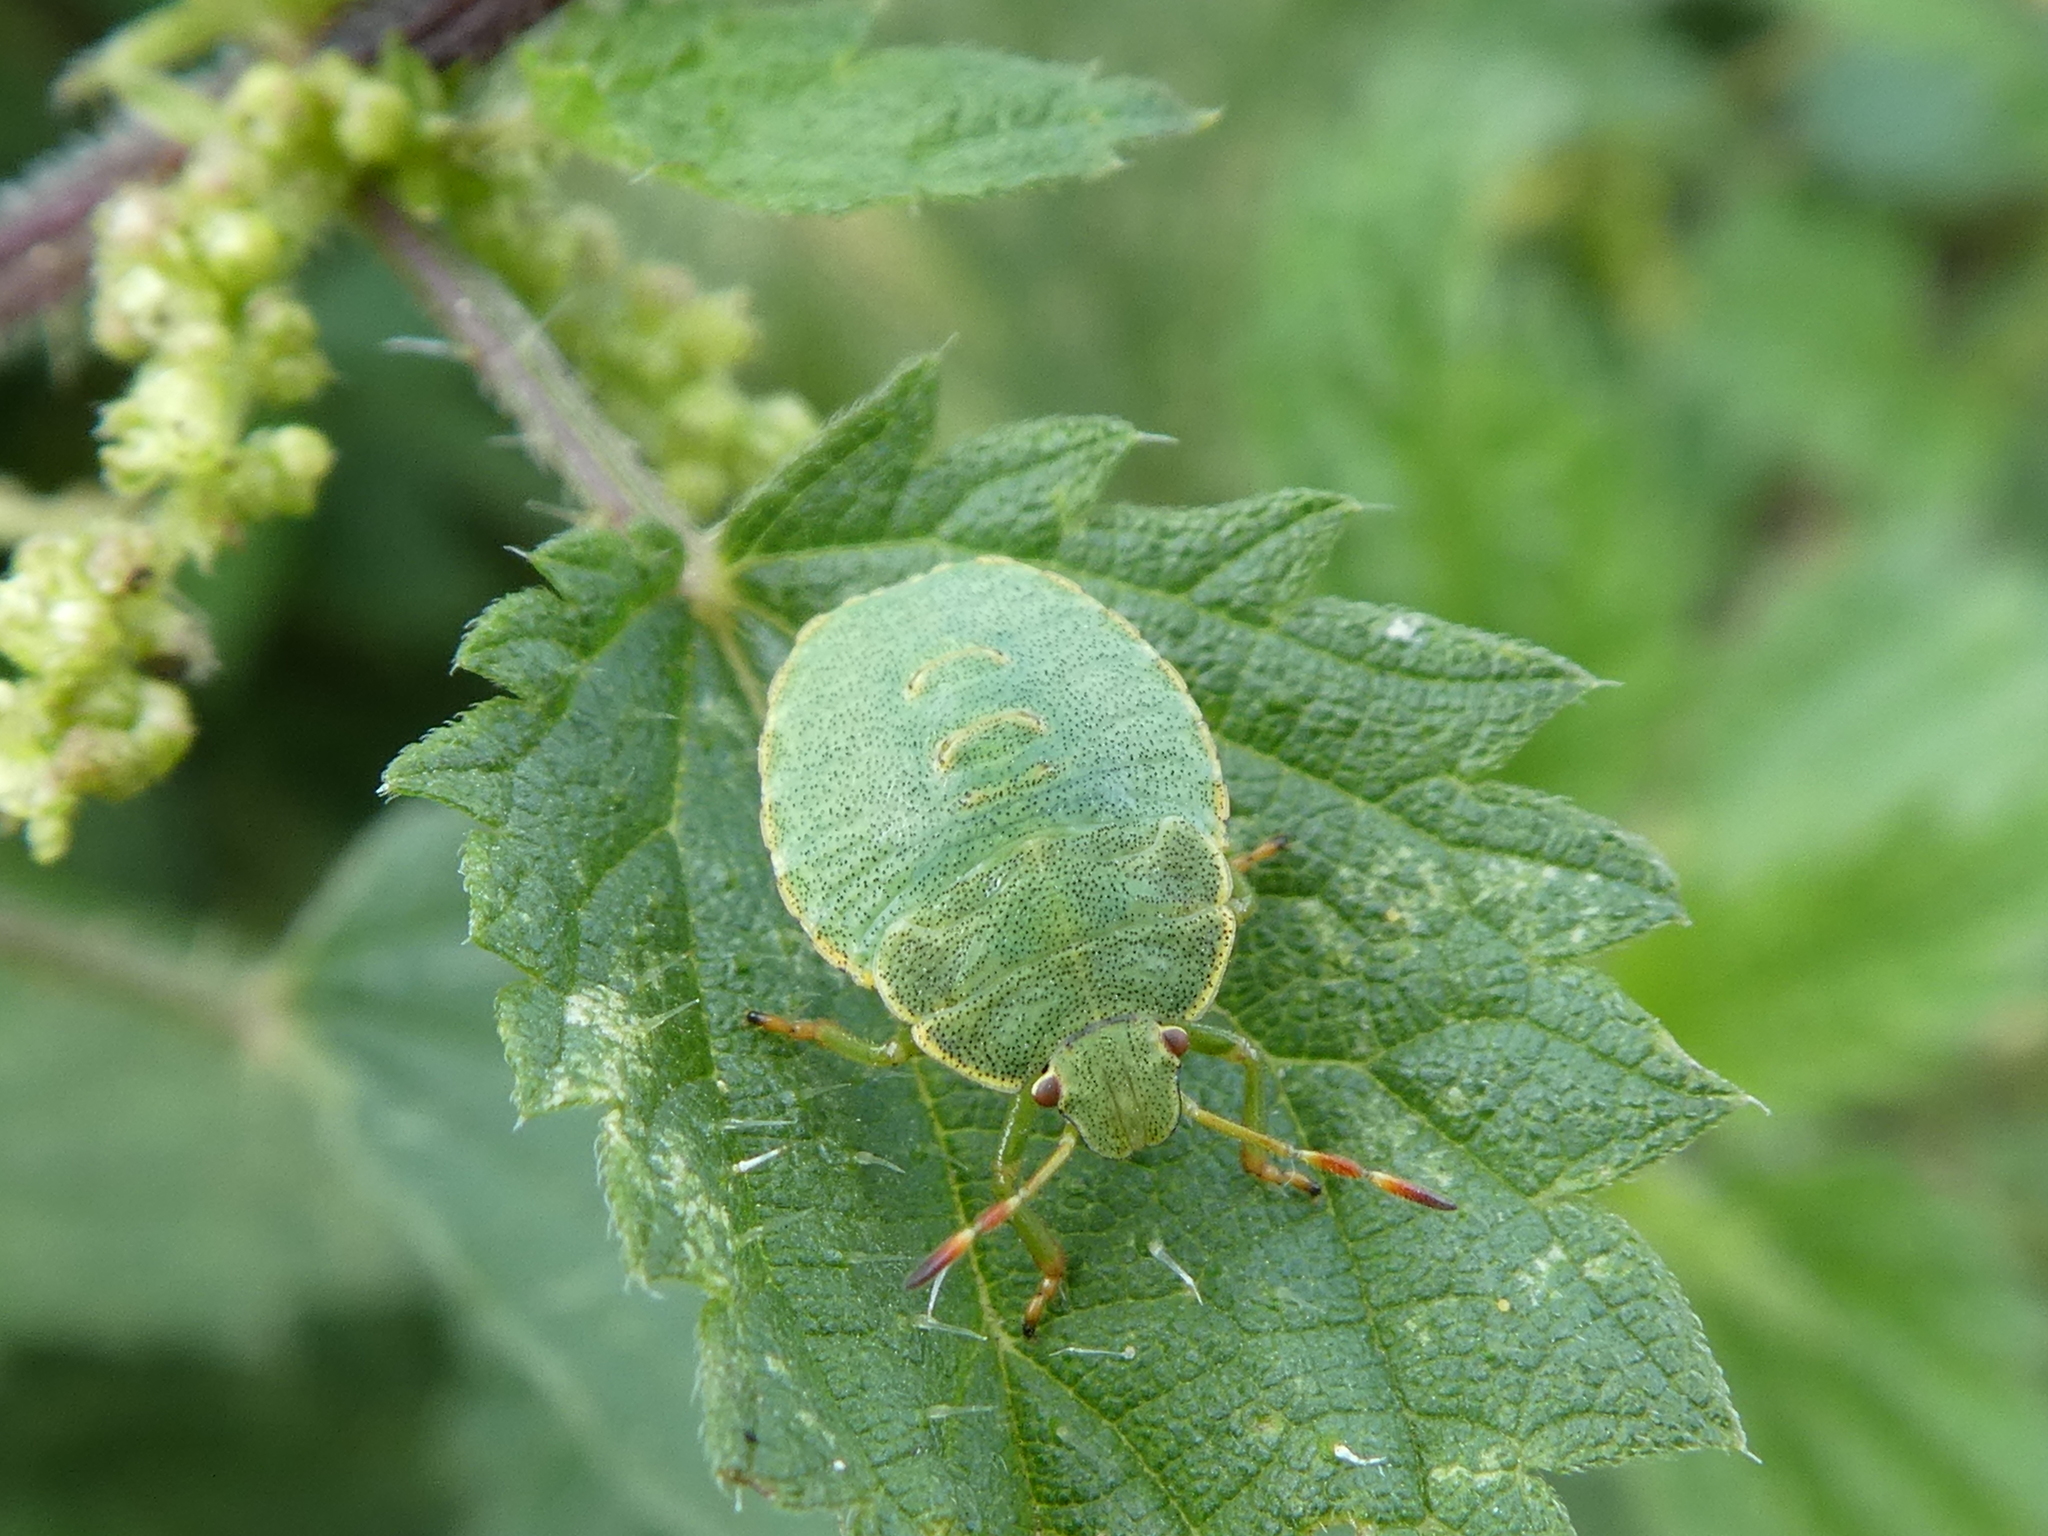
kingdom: Animalia
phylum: Arthropoda
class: Insecta
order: Hemiptera
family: Pentatomidae
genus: Palomena
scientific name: Palomena prasina
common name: Green shieldbug
